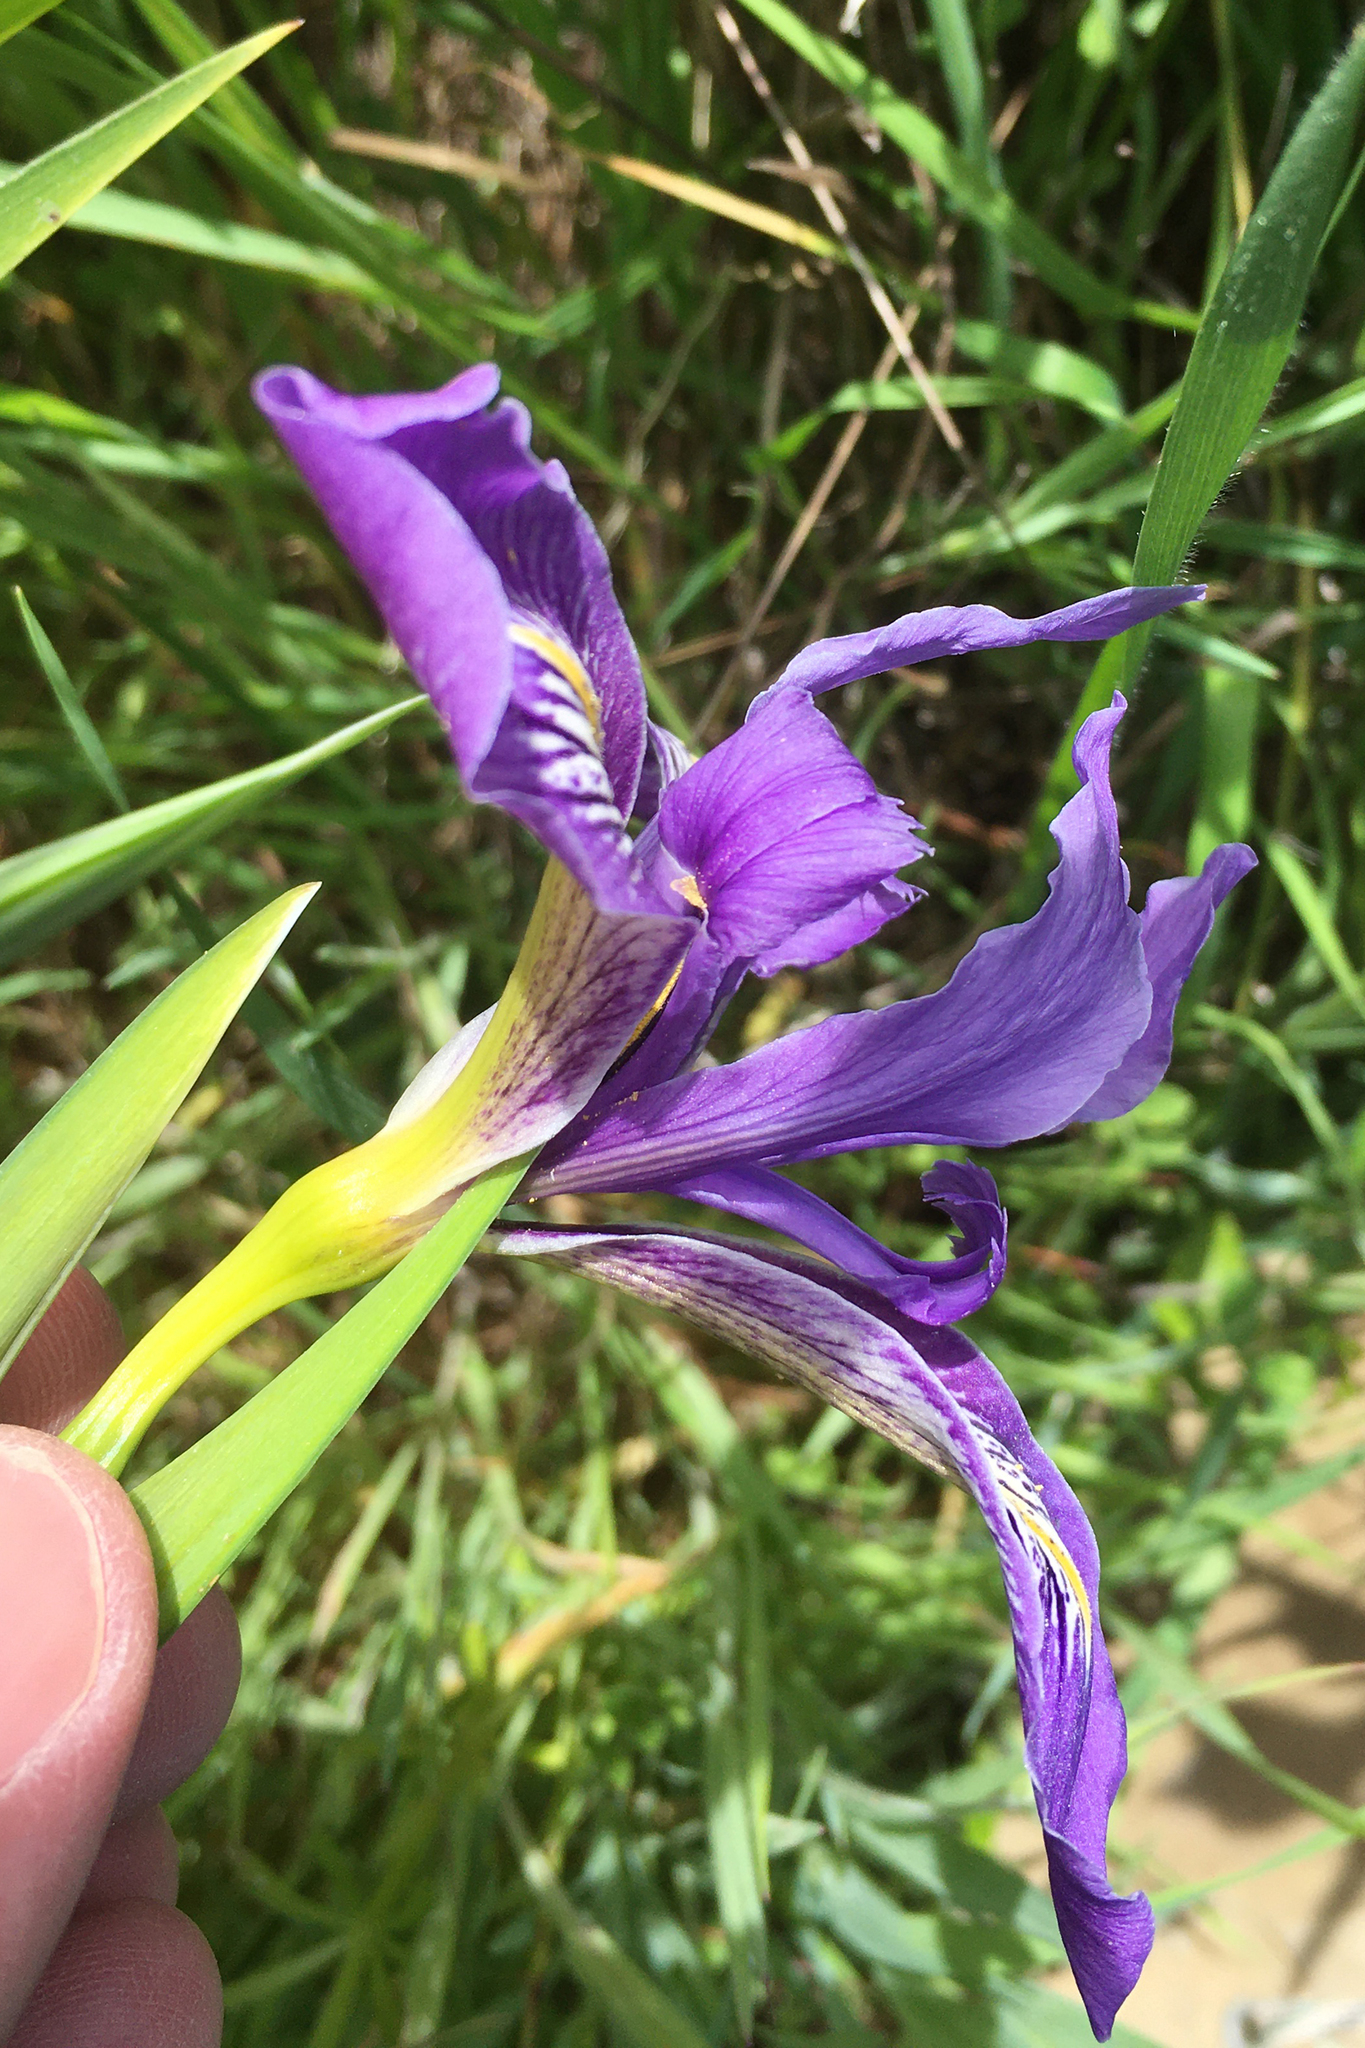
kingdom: Plantae
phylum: Tracheophyta
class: Liliopsida
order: Asparagales
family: Iridaceae
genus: Iris
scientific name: Iris douglasiana
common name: Marin iris
